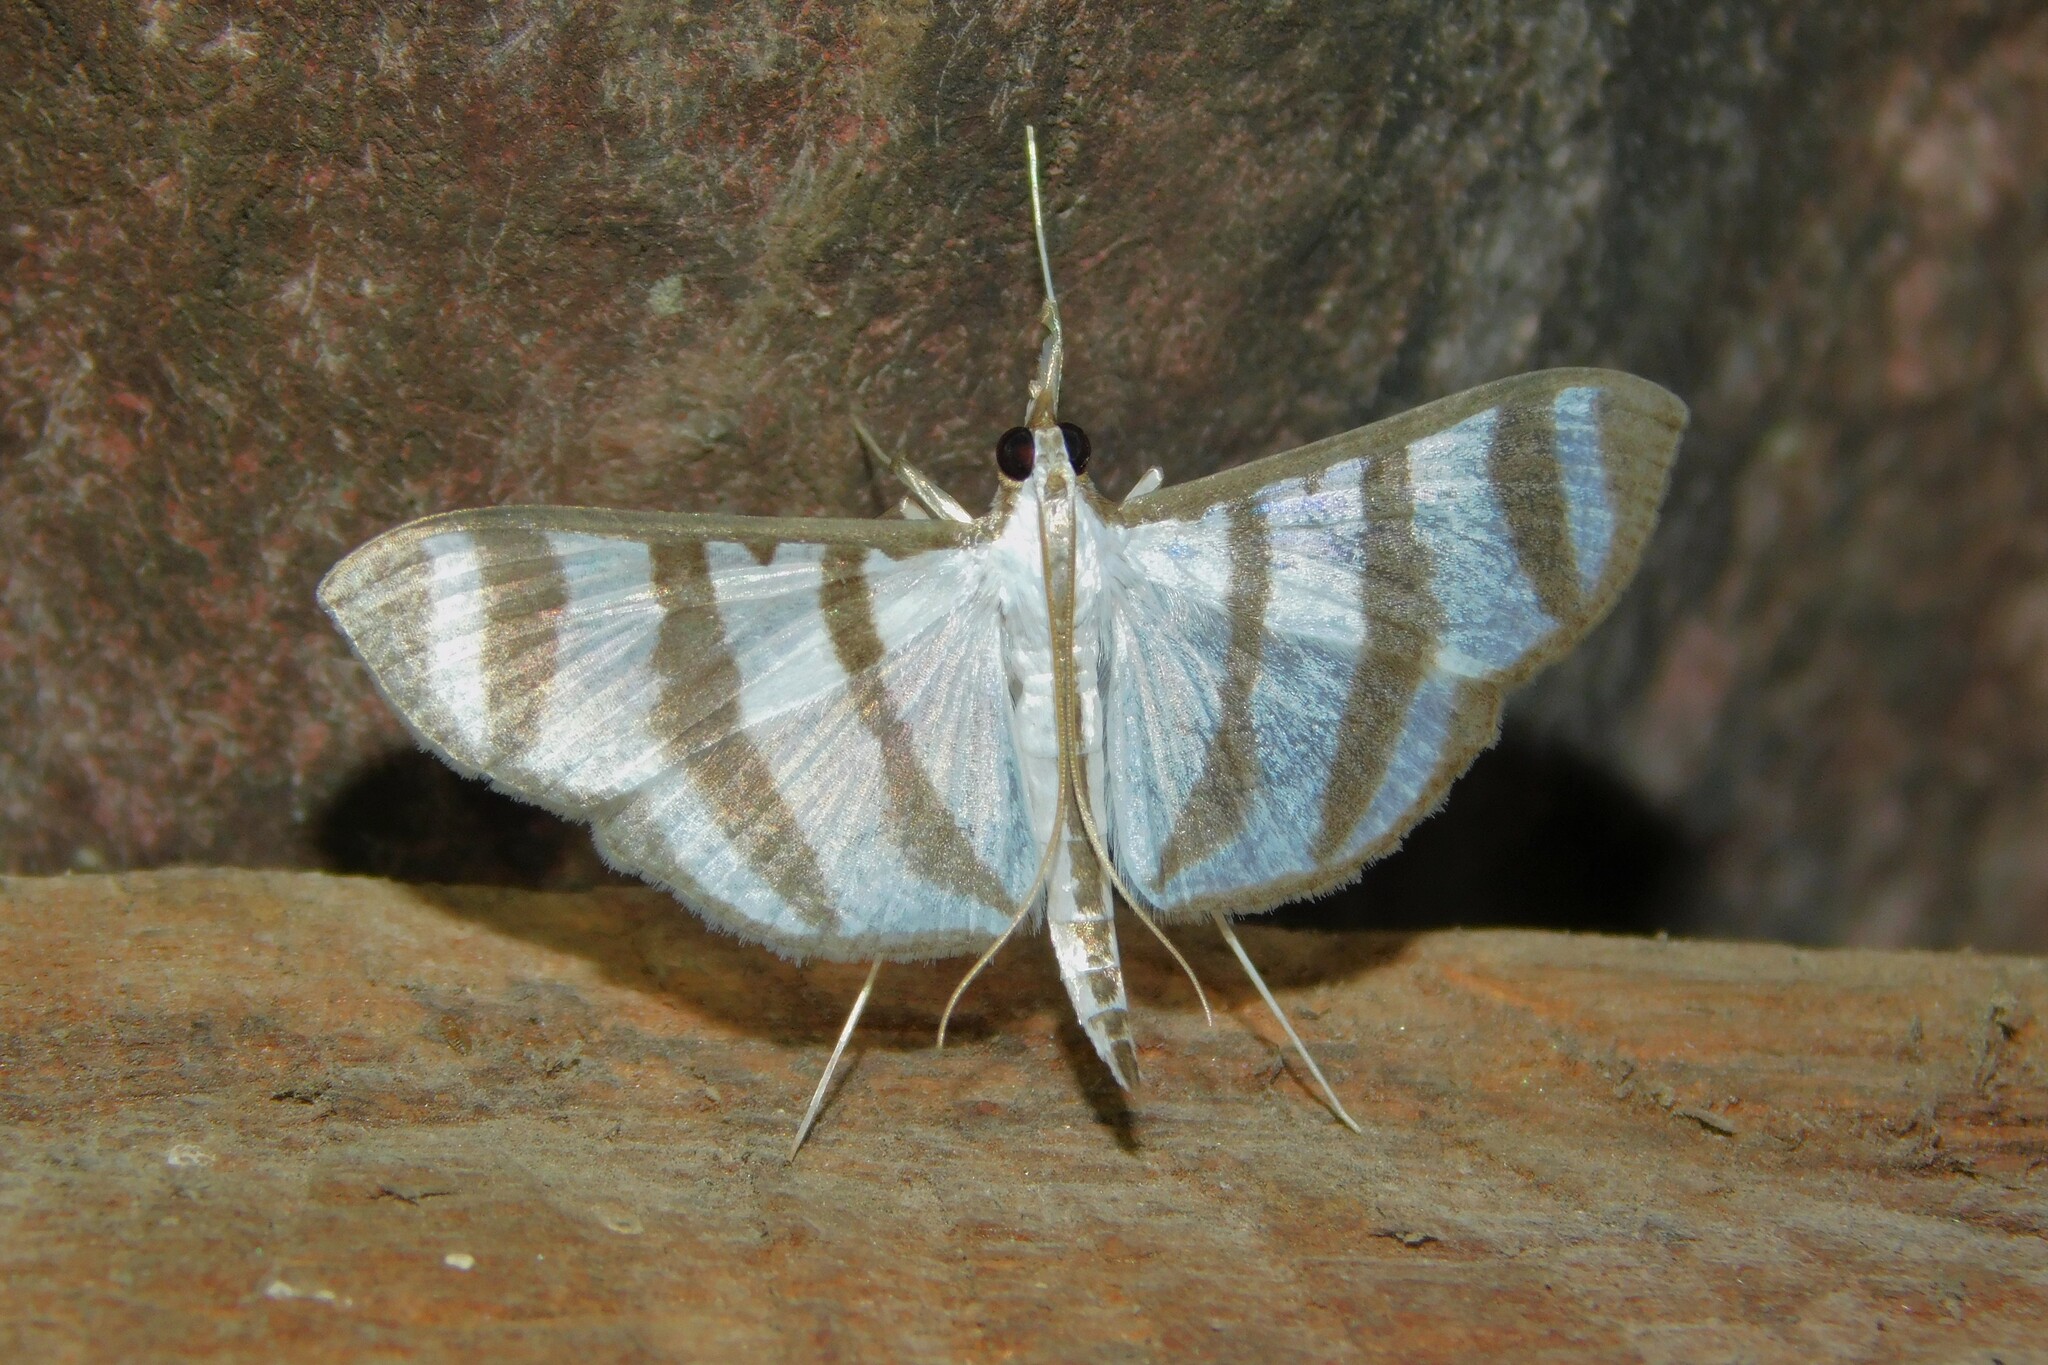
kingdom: Animalia
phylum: Arthropoda
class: Insecta
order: Lepidoptera
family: Crambidae
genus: Zebronia
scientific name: Zebronia phenice
